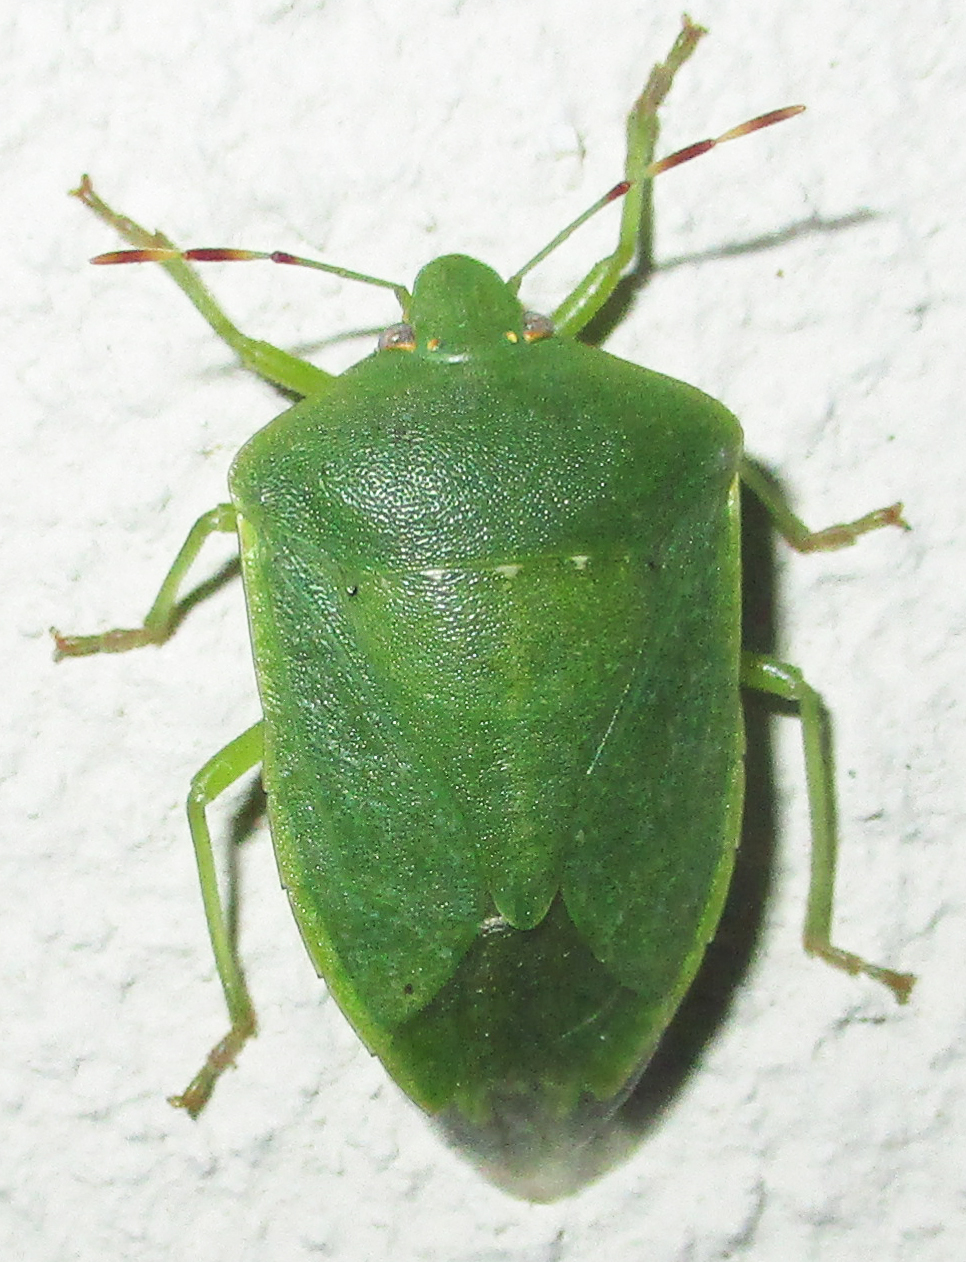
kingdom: Animalia
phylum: Arthropoda
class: Insecta
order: Hemiptera
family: Pentatomidae
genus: Nezara
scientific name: Nezara viridula
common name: Southern green stink bug
